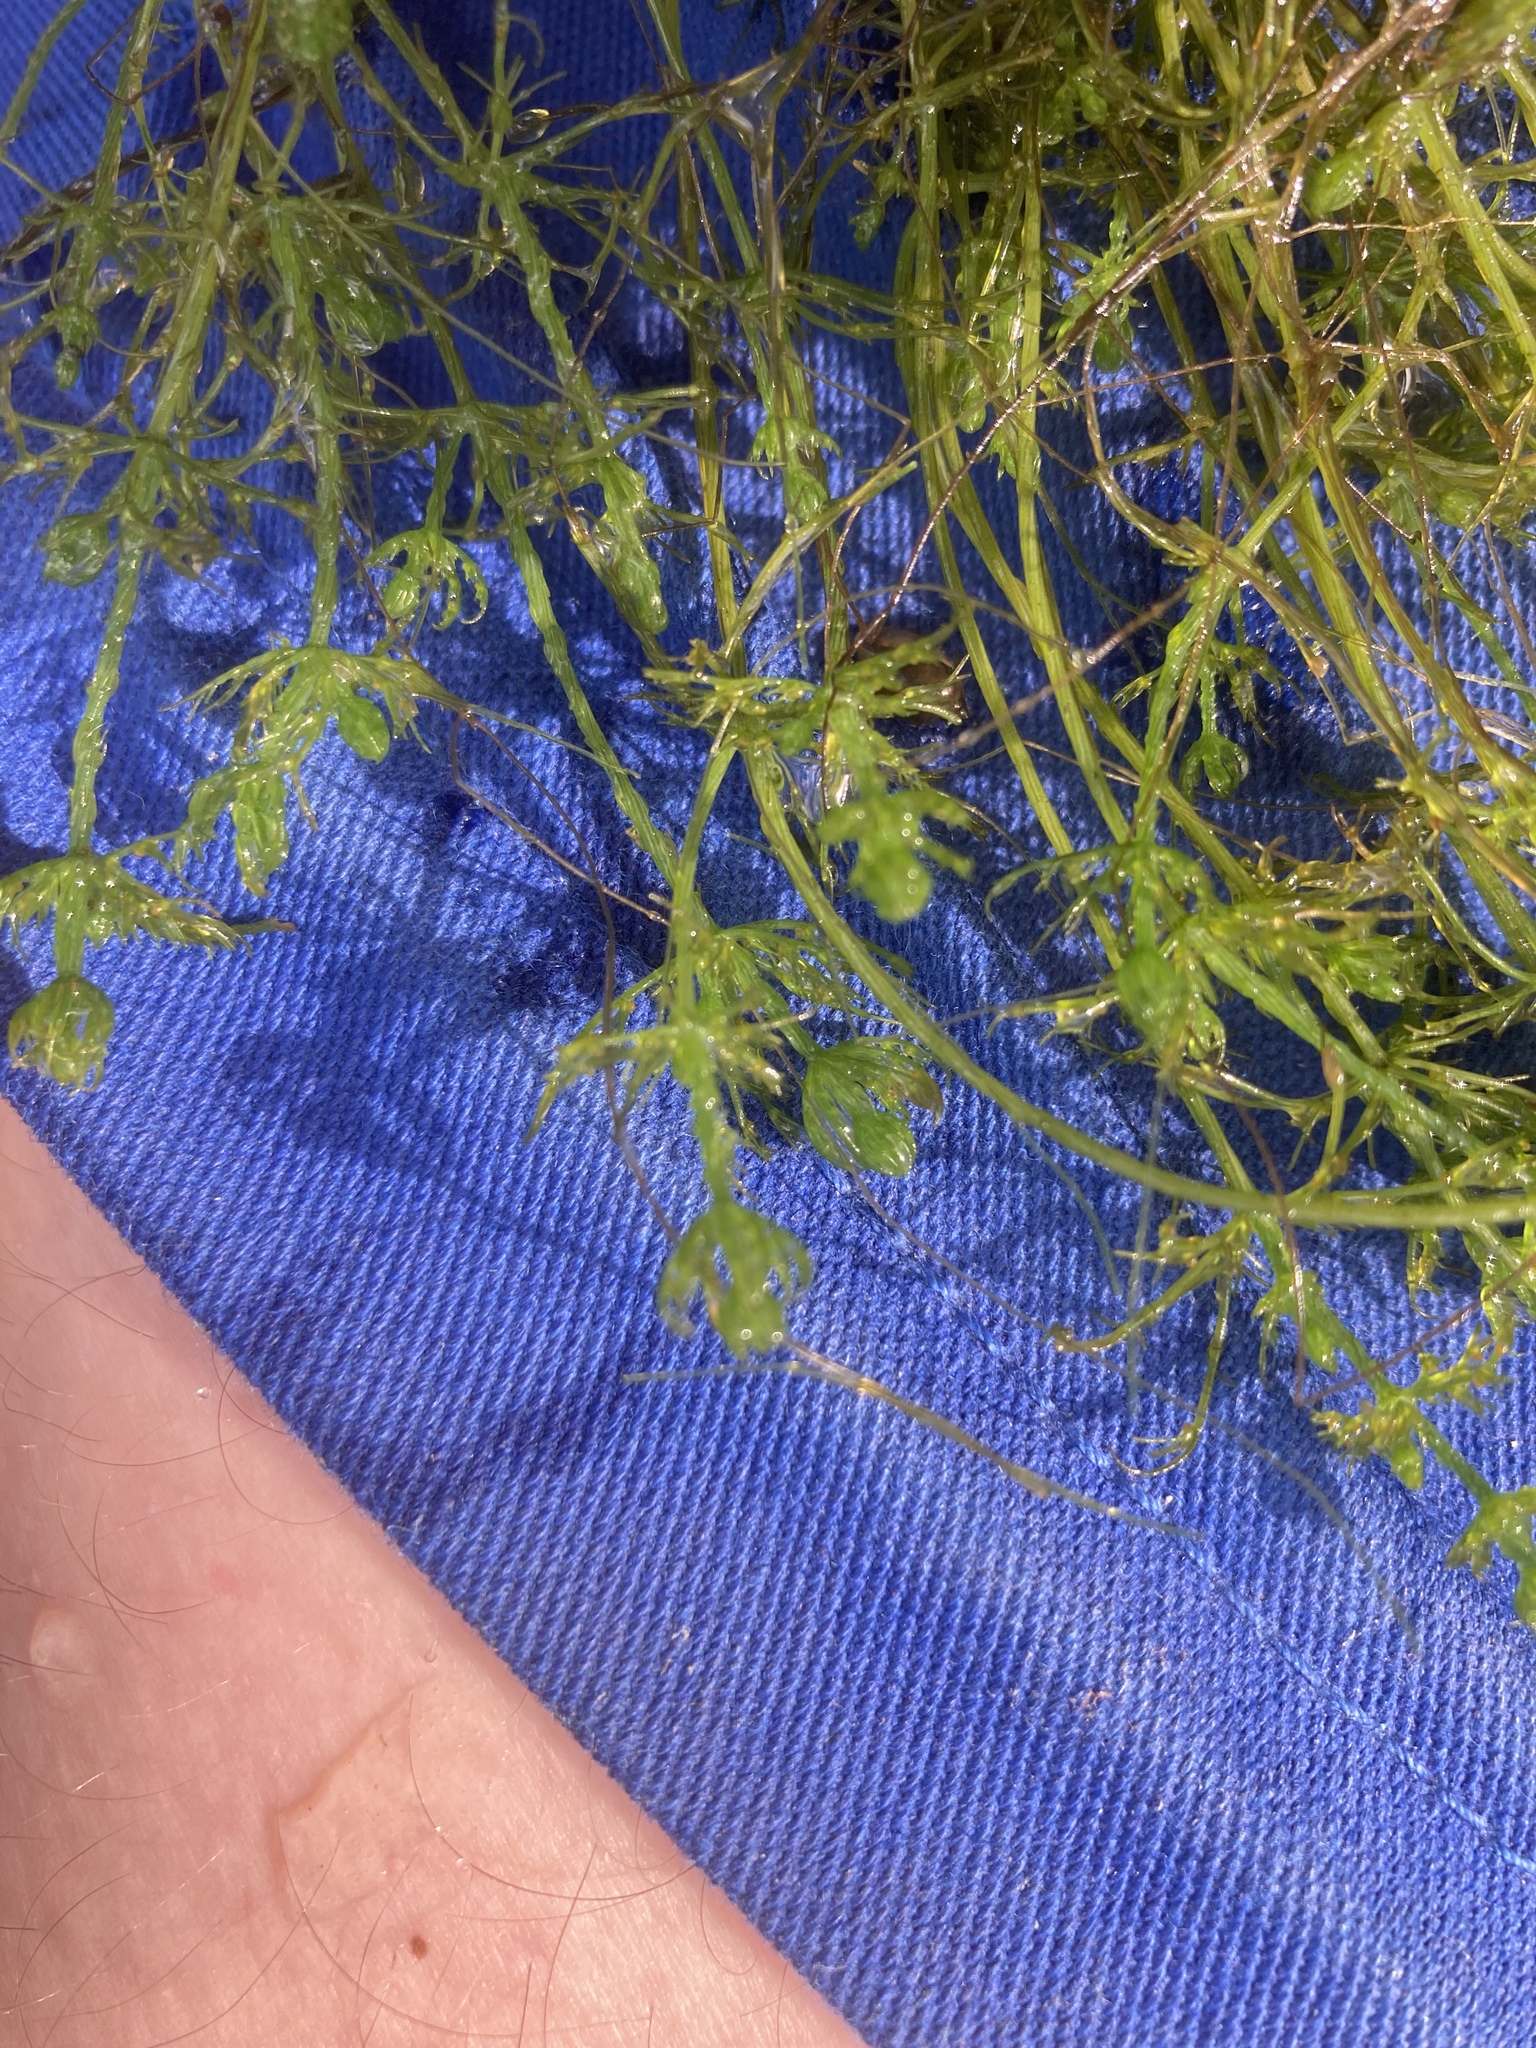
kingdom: Plantae
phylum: Charophyta
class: Charophyceae
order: Charales
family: Characeae
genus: Chara
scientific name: Chara vulgaris
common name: Common stonewort
